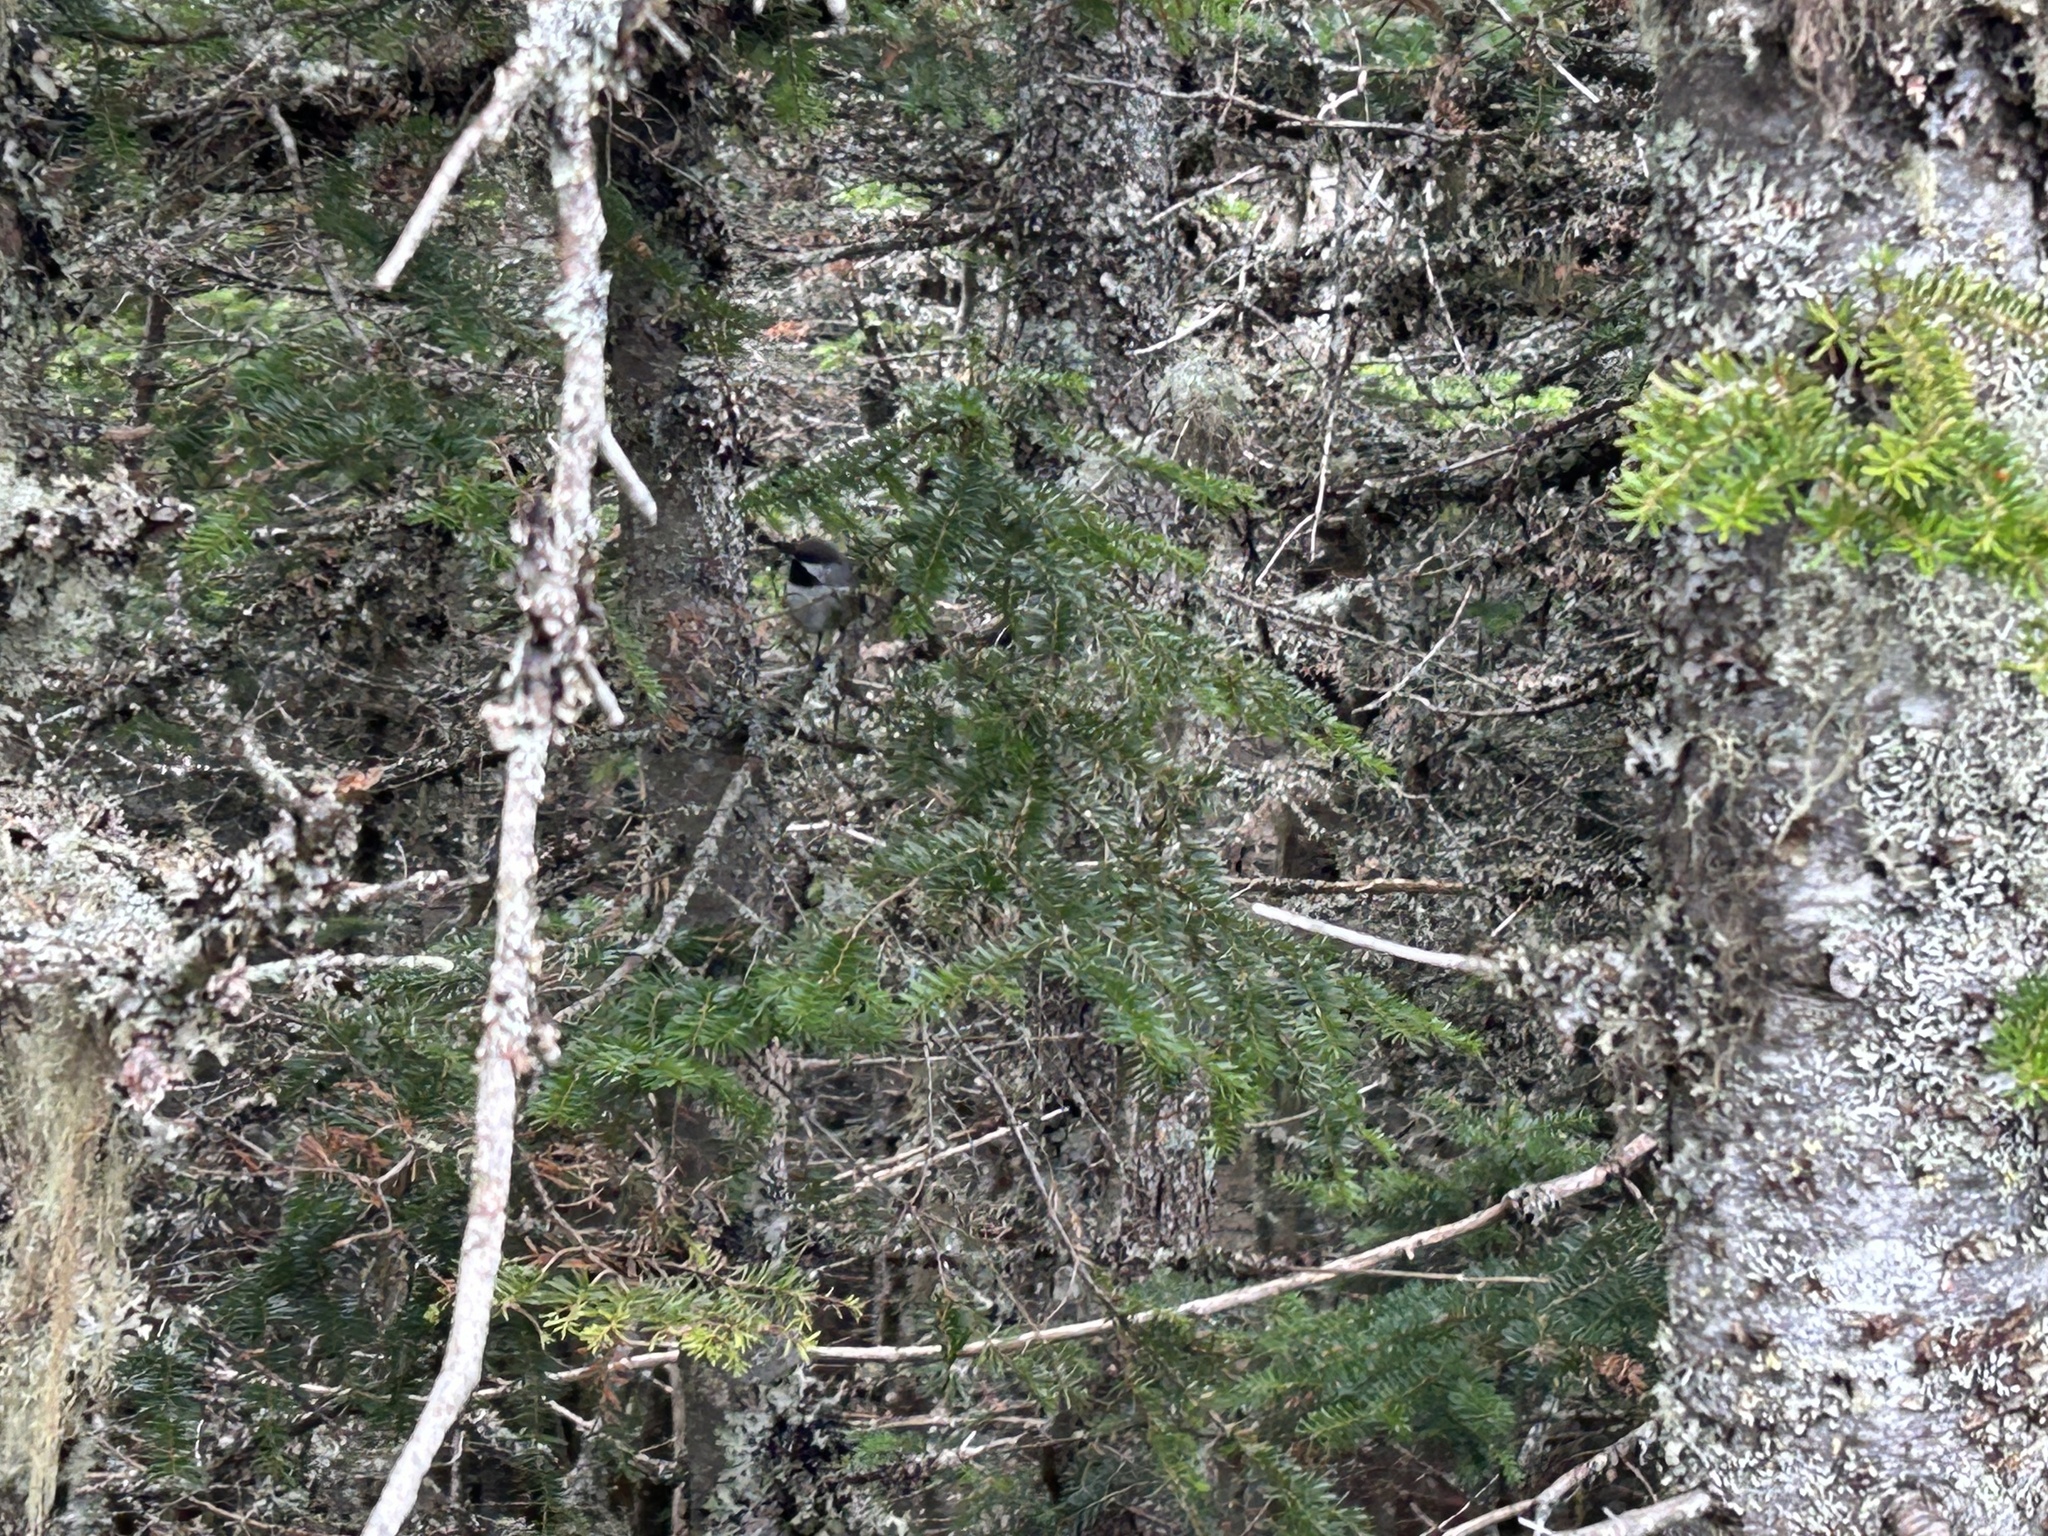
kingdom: Animalia
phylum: Chordata
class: Aves
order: Passeriformes
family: Paridae
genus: Poecile
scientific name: Poecile hudsonicus
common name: Boreal chickadee
